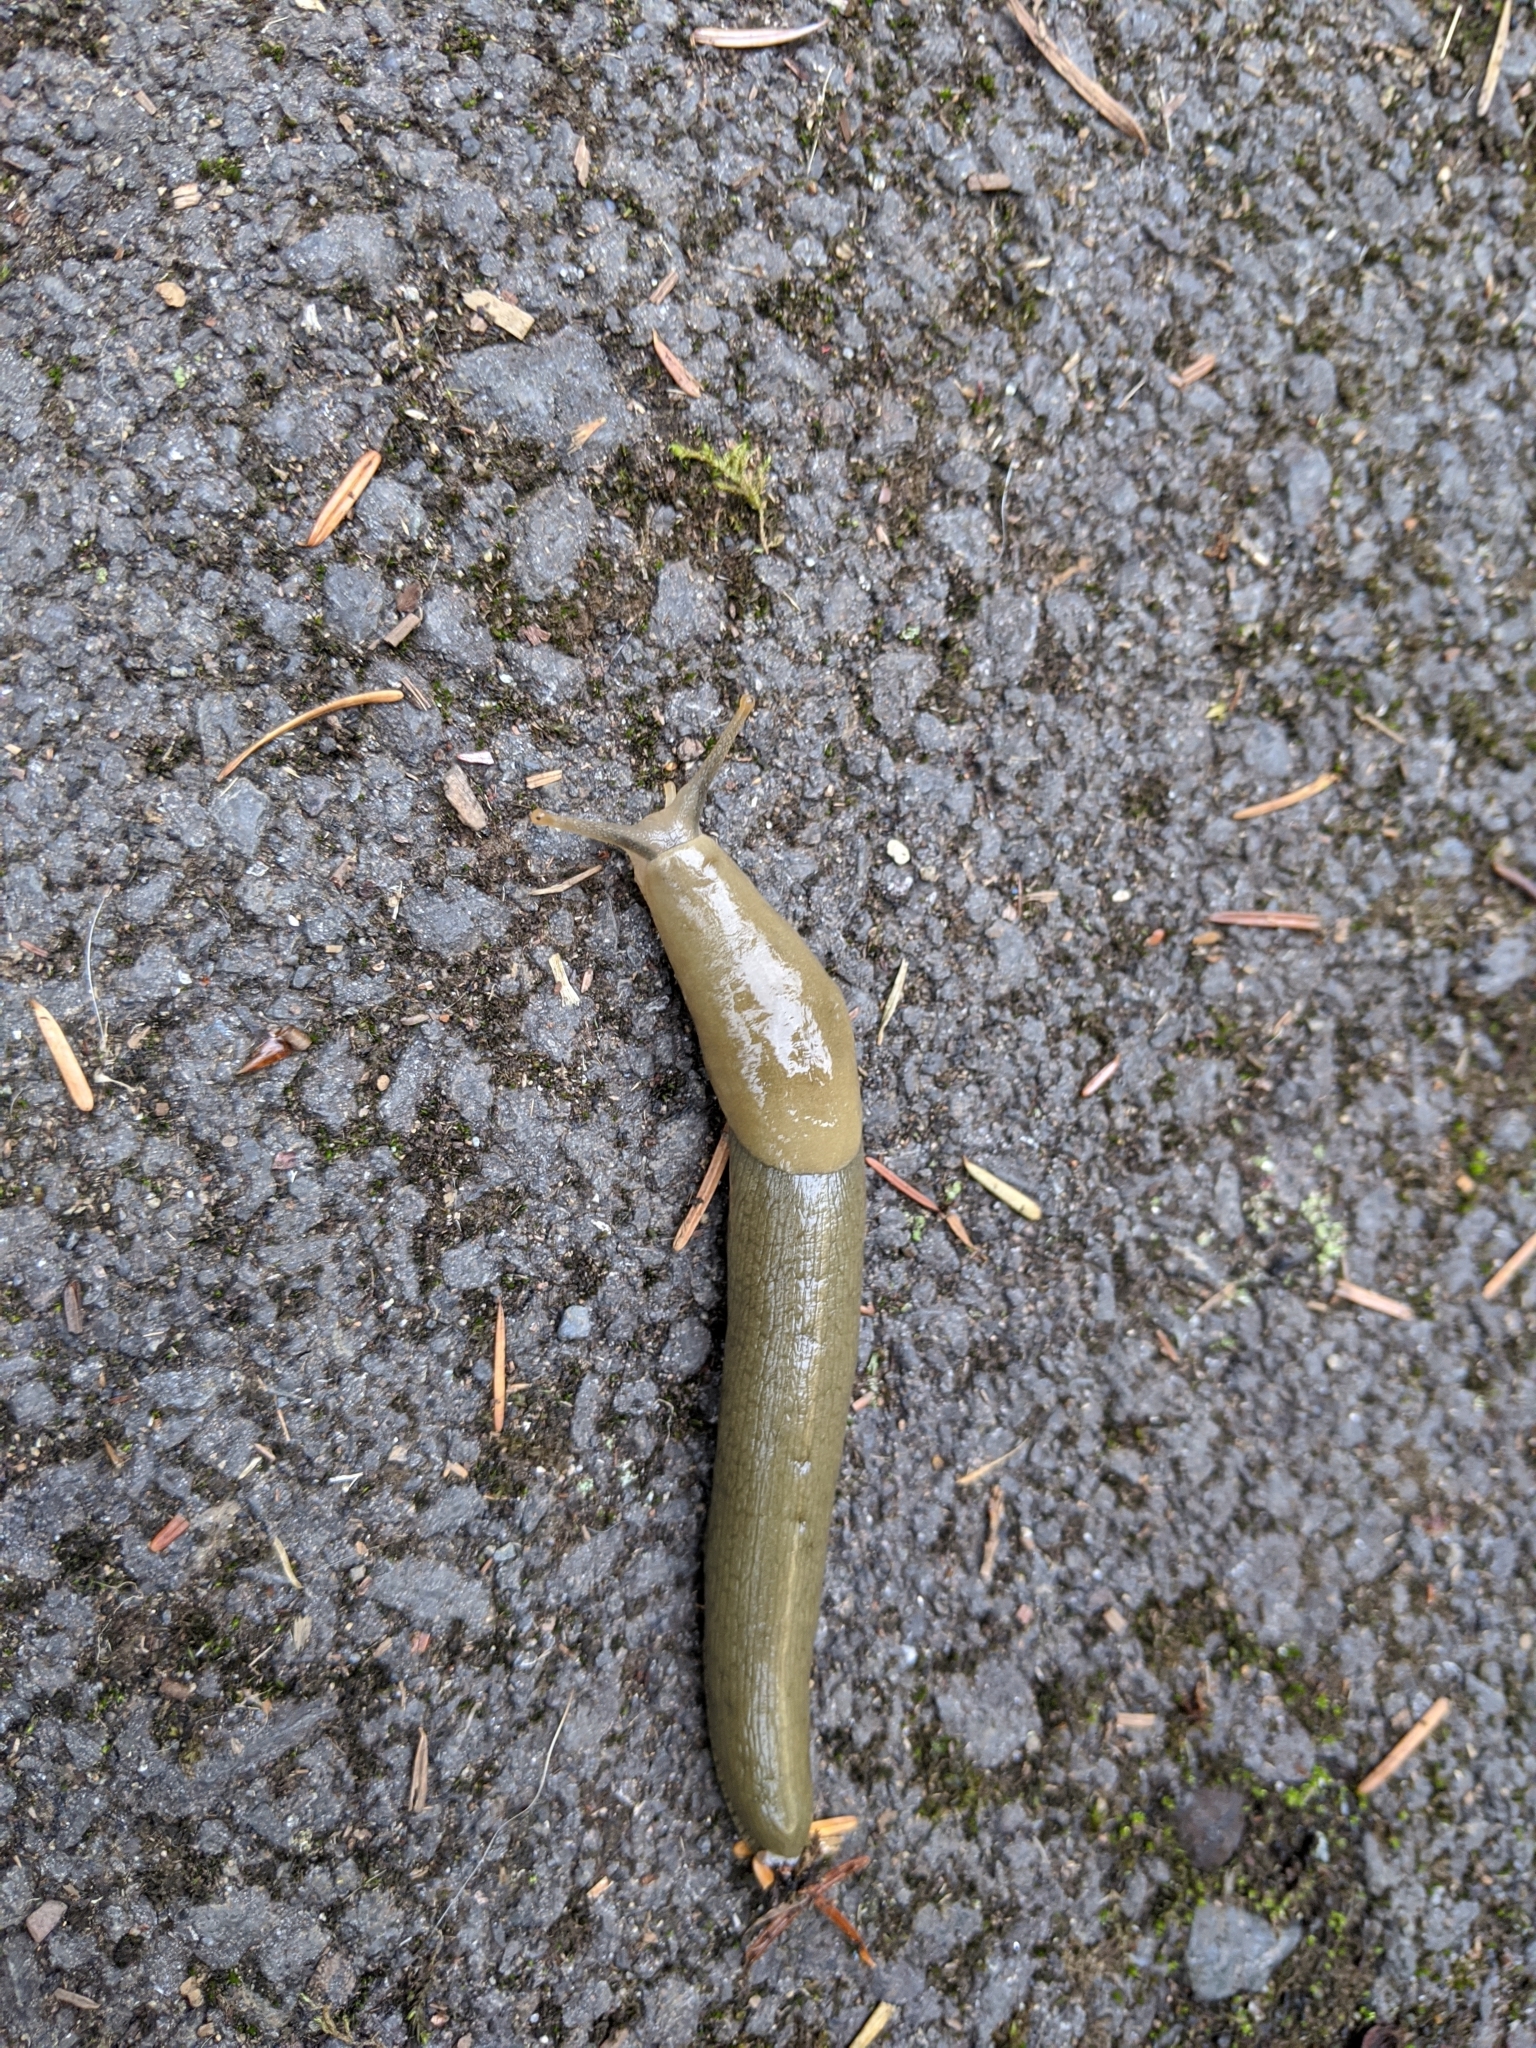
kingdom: Animalia
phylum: Mollusca
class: Gastropoda
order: Stylommatophora
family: Ariolimacidae
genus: Ariolimax
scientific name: Ariolimax columbianus
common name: Pacific banana slug
